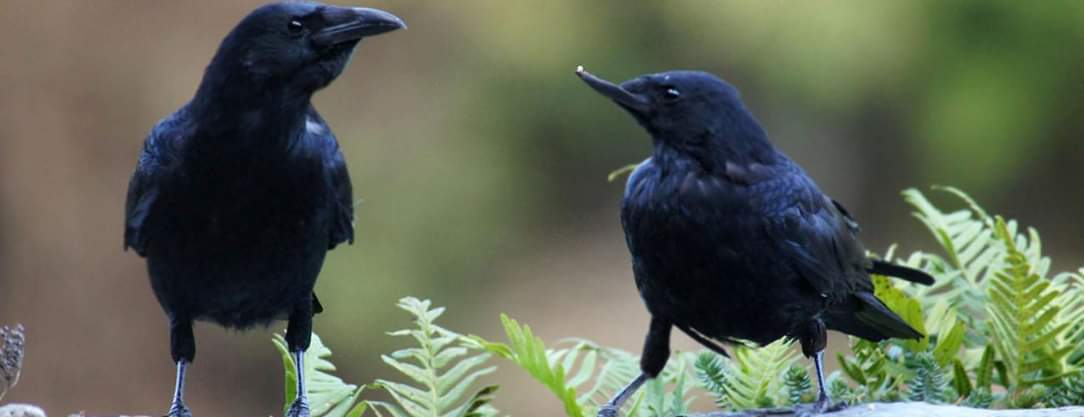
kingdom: Animalia
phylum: Chordata
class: Aves
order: Passeriformes
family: Corvidae
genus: Corvus
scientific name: Corvus corone
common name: Carrion crow
